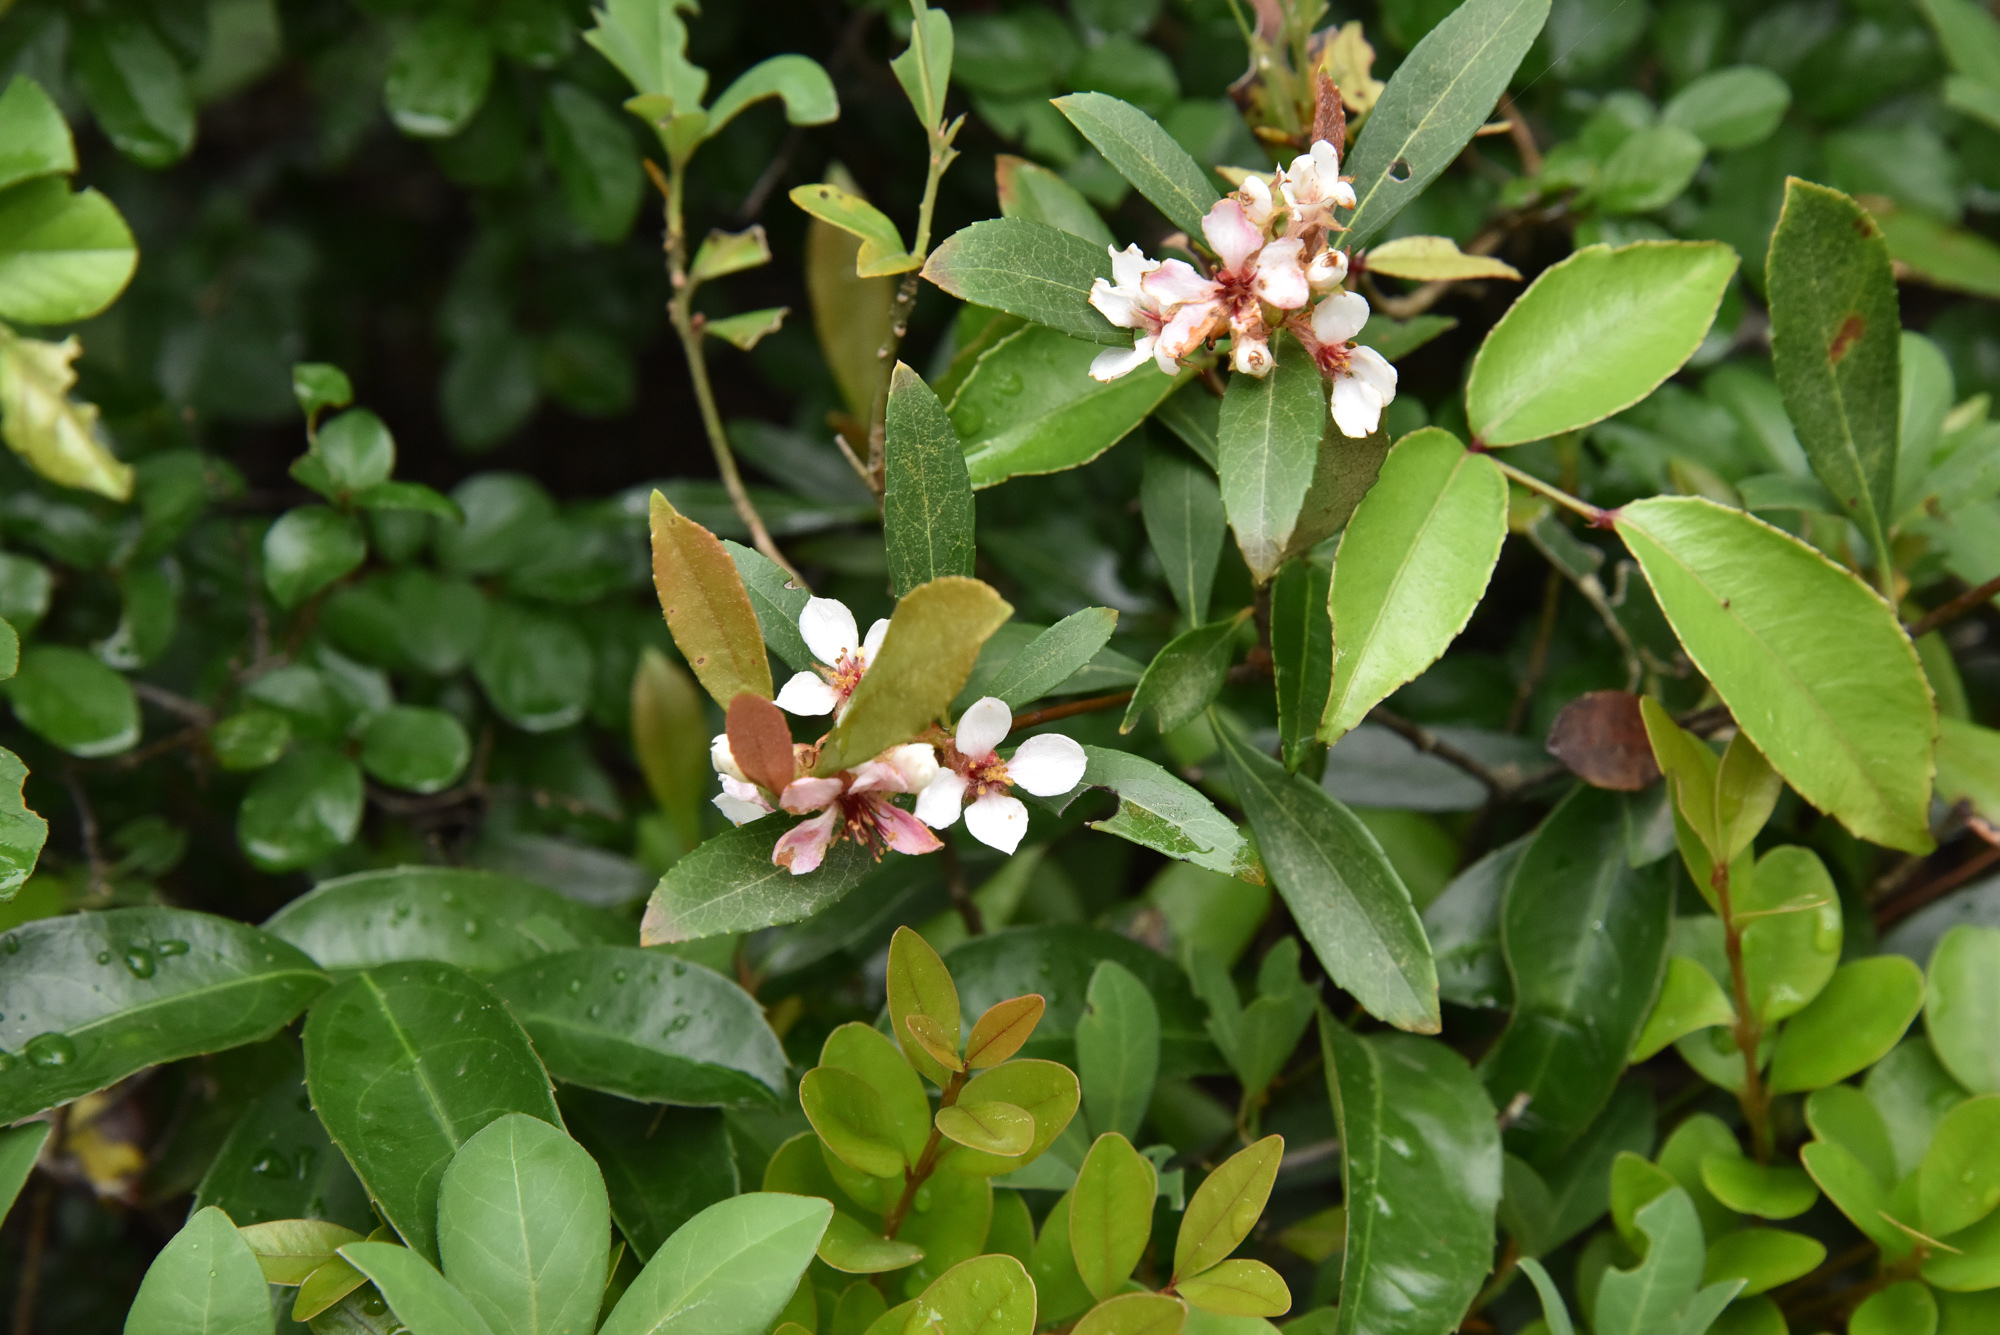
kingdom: Plantae
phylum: Tracheophyta
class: Magnoliopsida
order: Rosales
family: Rosaceae
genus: Rhaphiolepis
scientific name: Rhaphiolepis indica
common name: India-hawthorn
